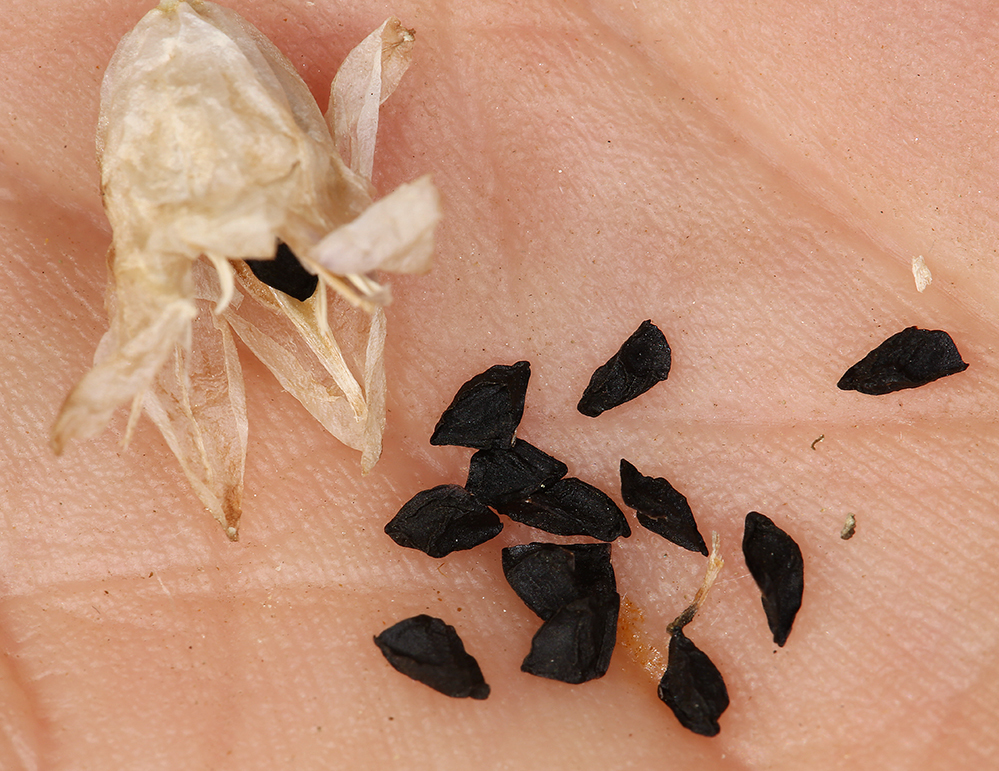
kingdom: Plantae
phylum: Tracheophyta
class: Liliopsida
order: Asparagales
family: Asparagaceae
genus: Dipterostemon
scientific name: Dipterostemon capitatus
